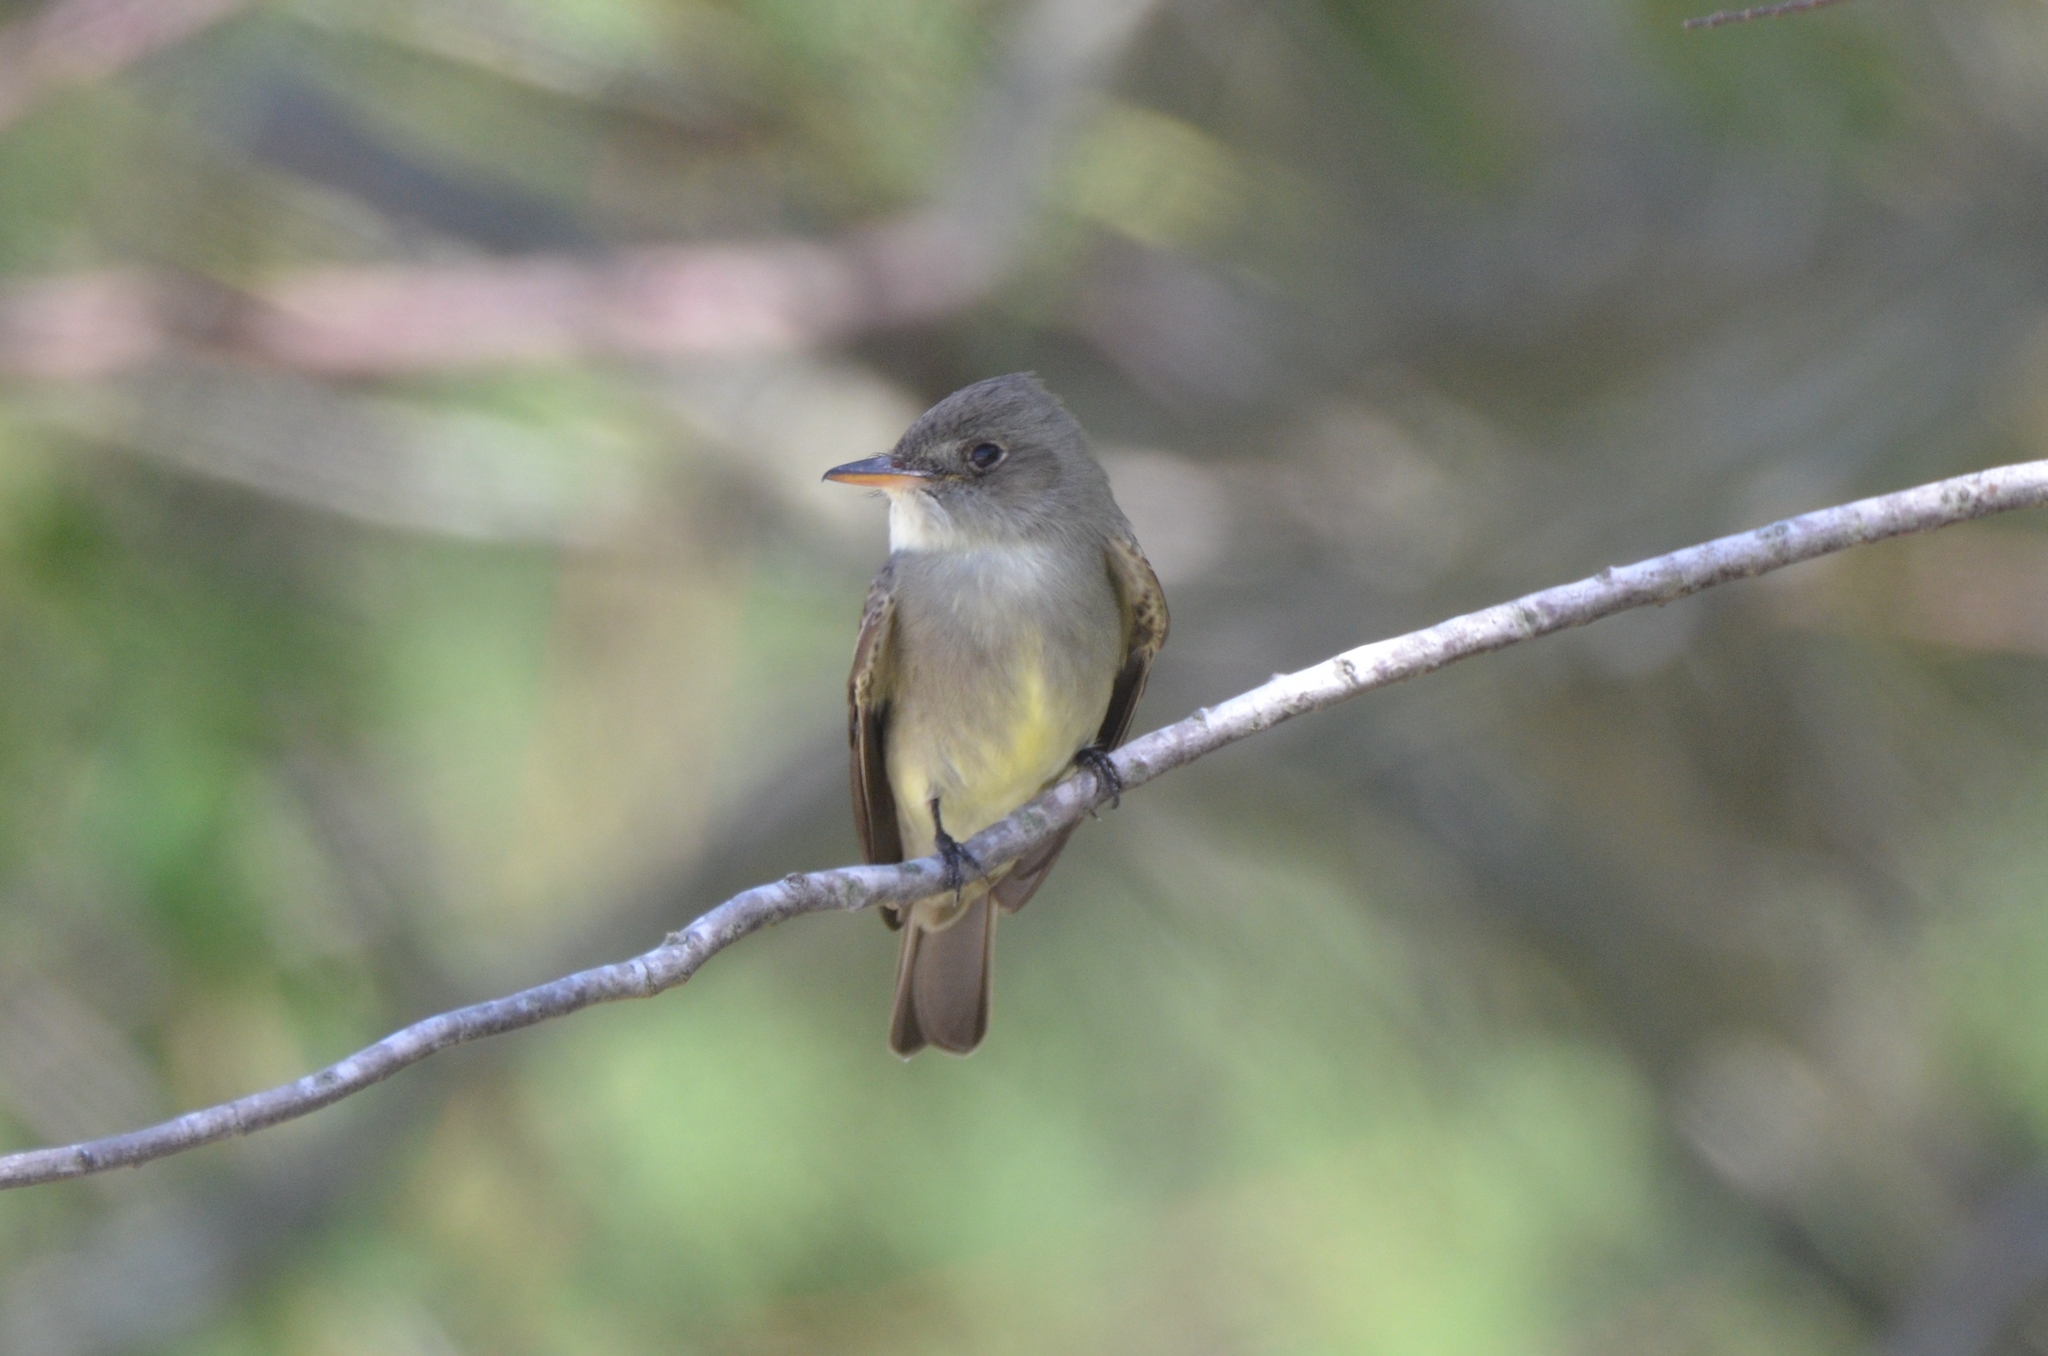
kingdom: Animalia
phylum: Chordata
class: Aves
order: Passeriformes
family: Tyrannidae
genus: Contopus
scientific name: Contopus virens
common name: Eastern wood-pewee
